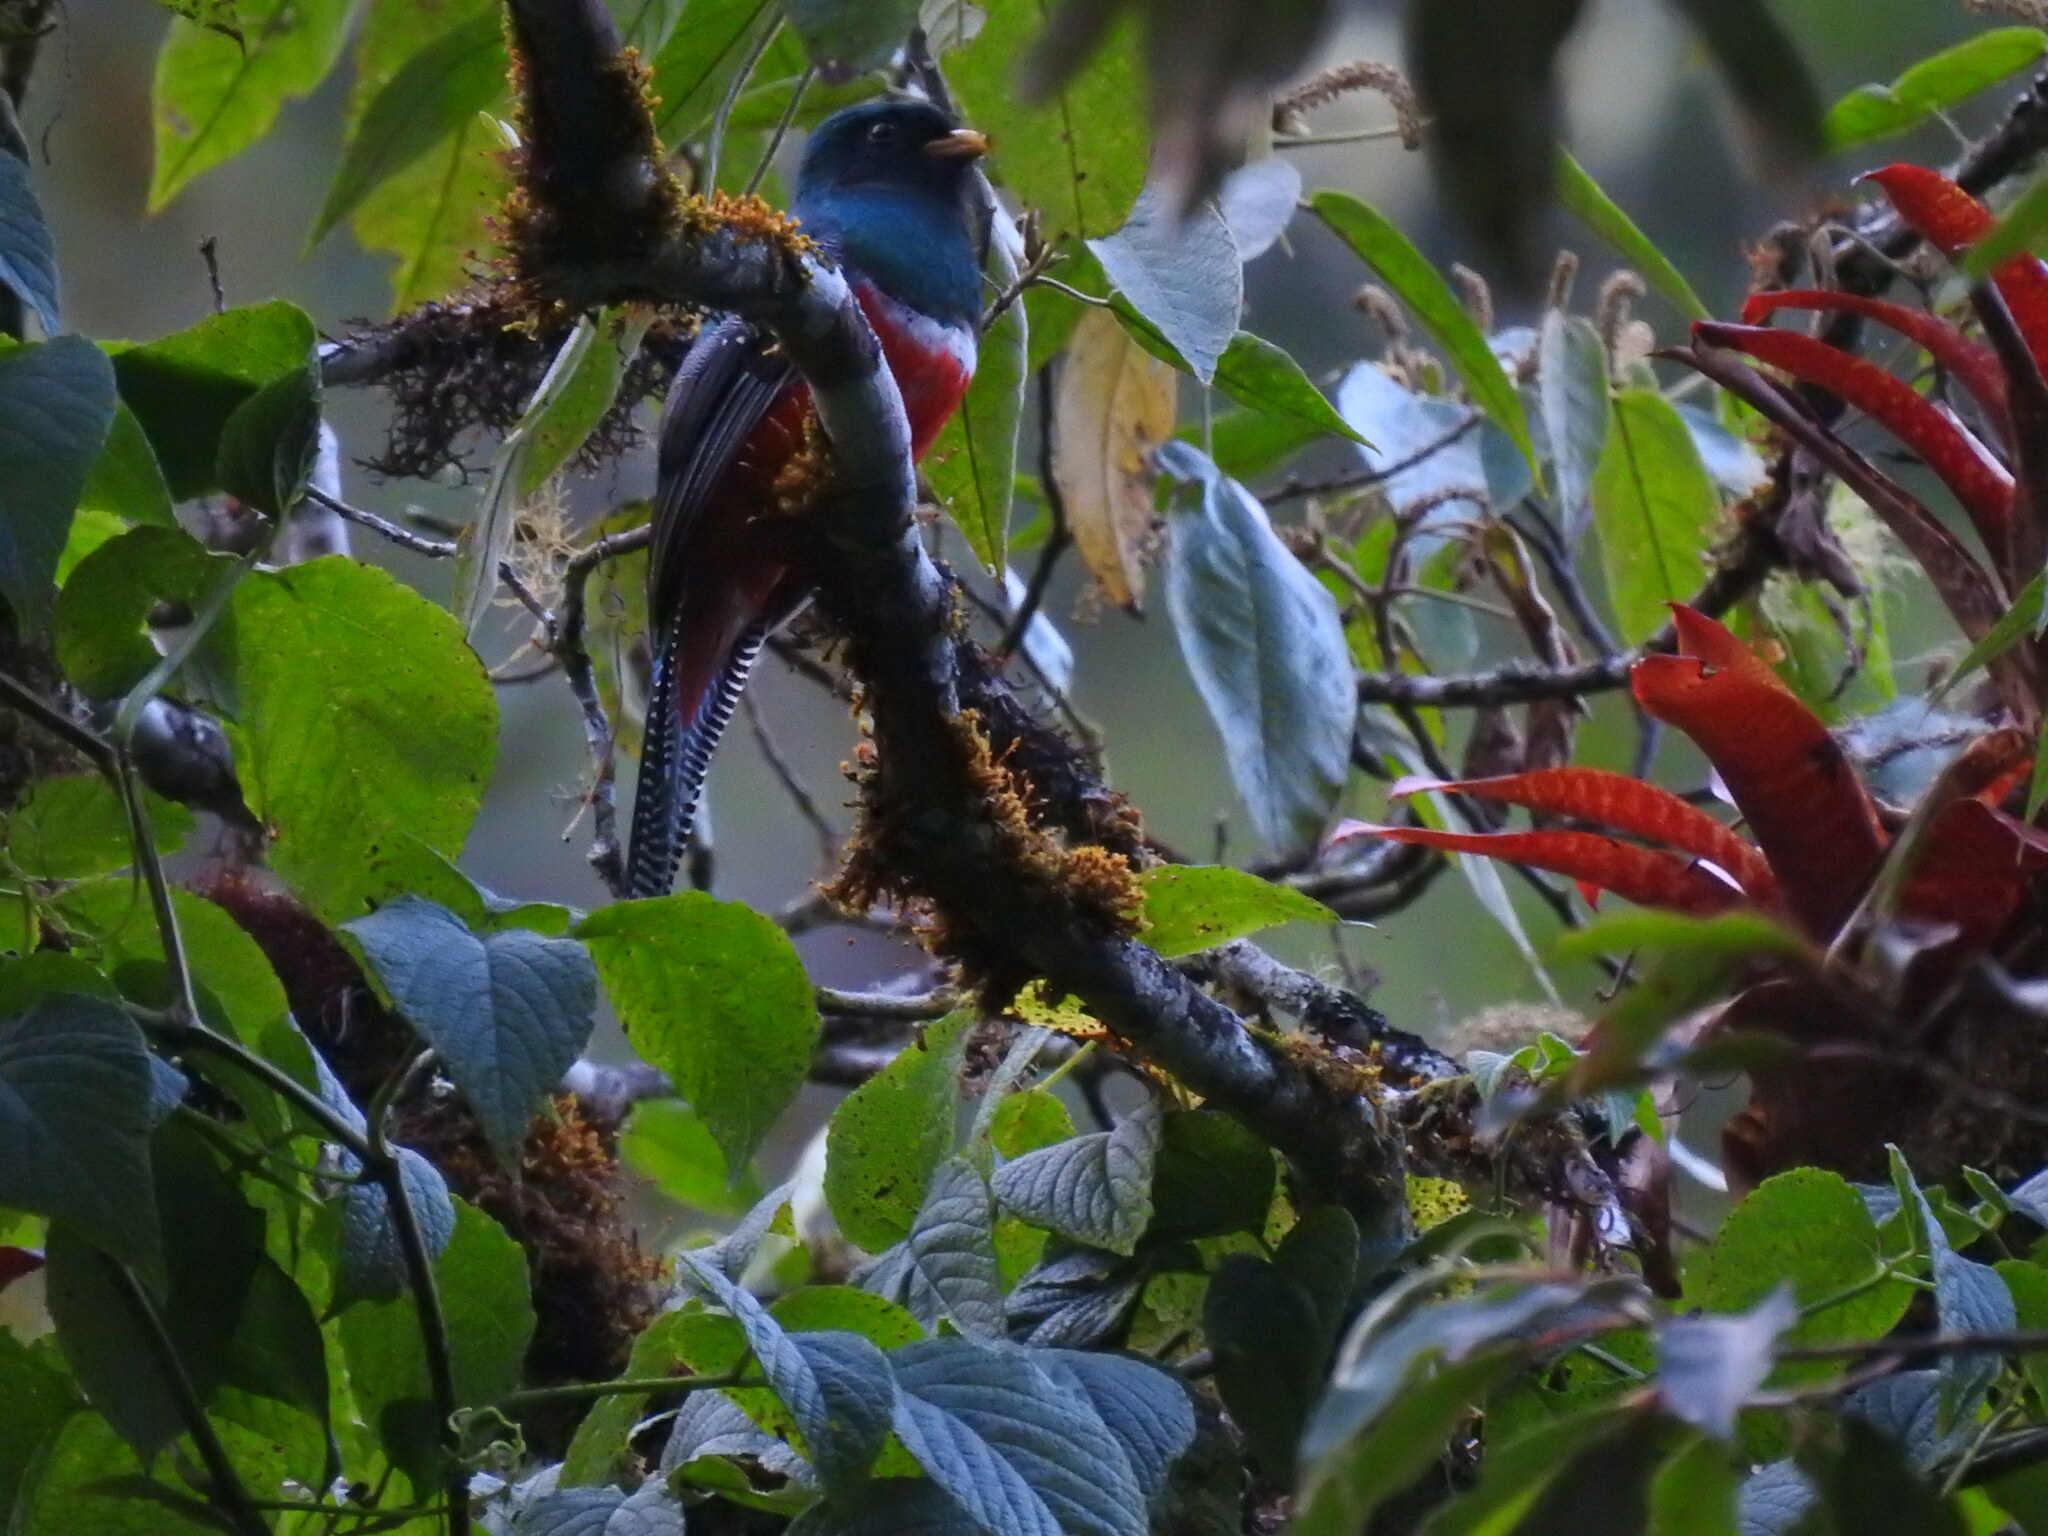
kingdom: Animalia
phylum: Chordata
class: Aves
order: Trogoniformes
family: Trogonidae
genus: Trogon
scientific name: Trogon collaris
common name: Collared trogon
